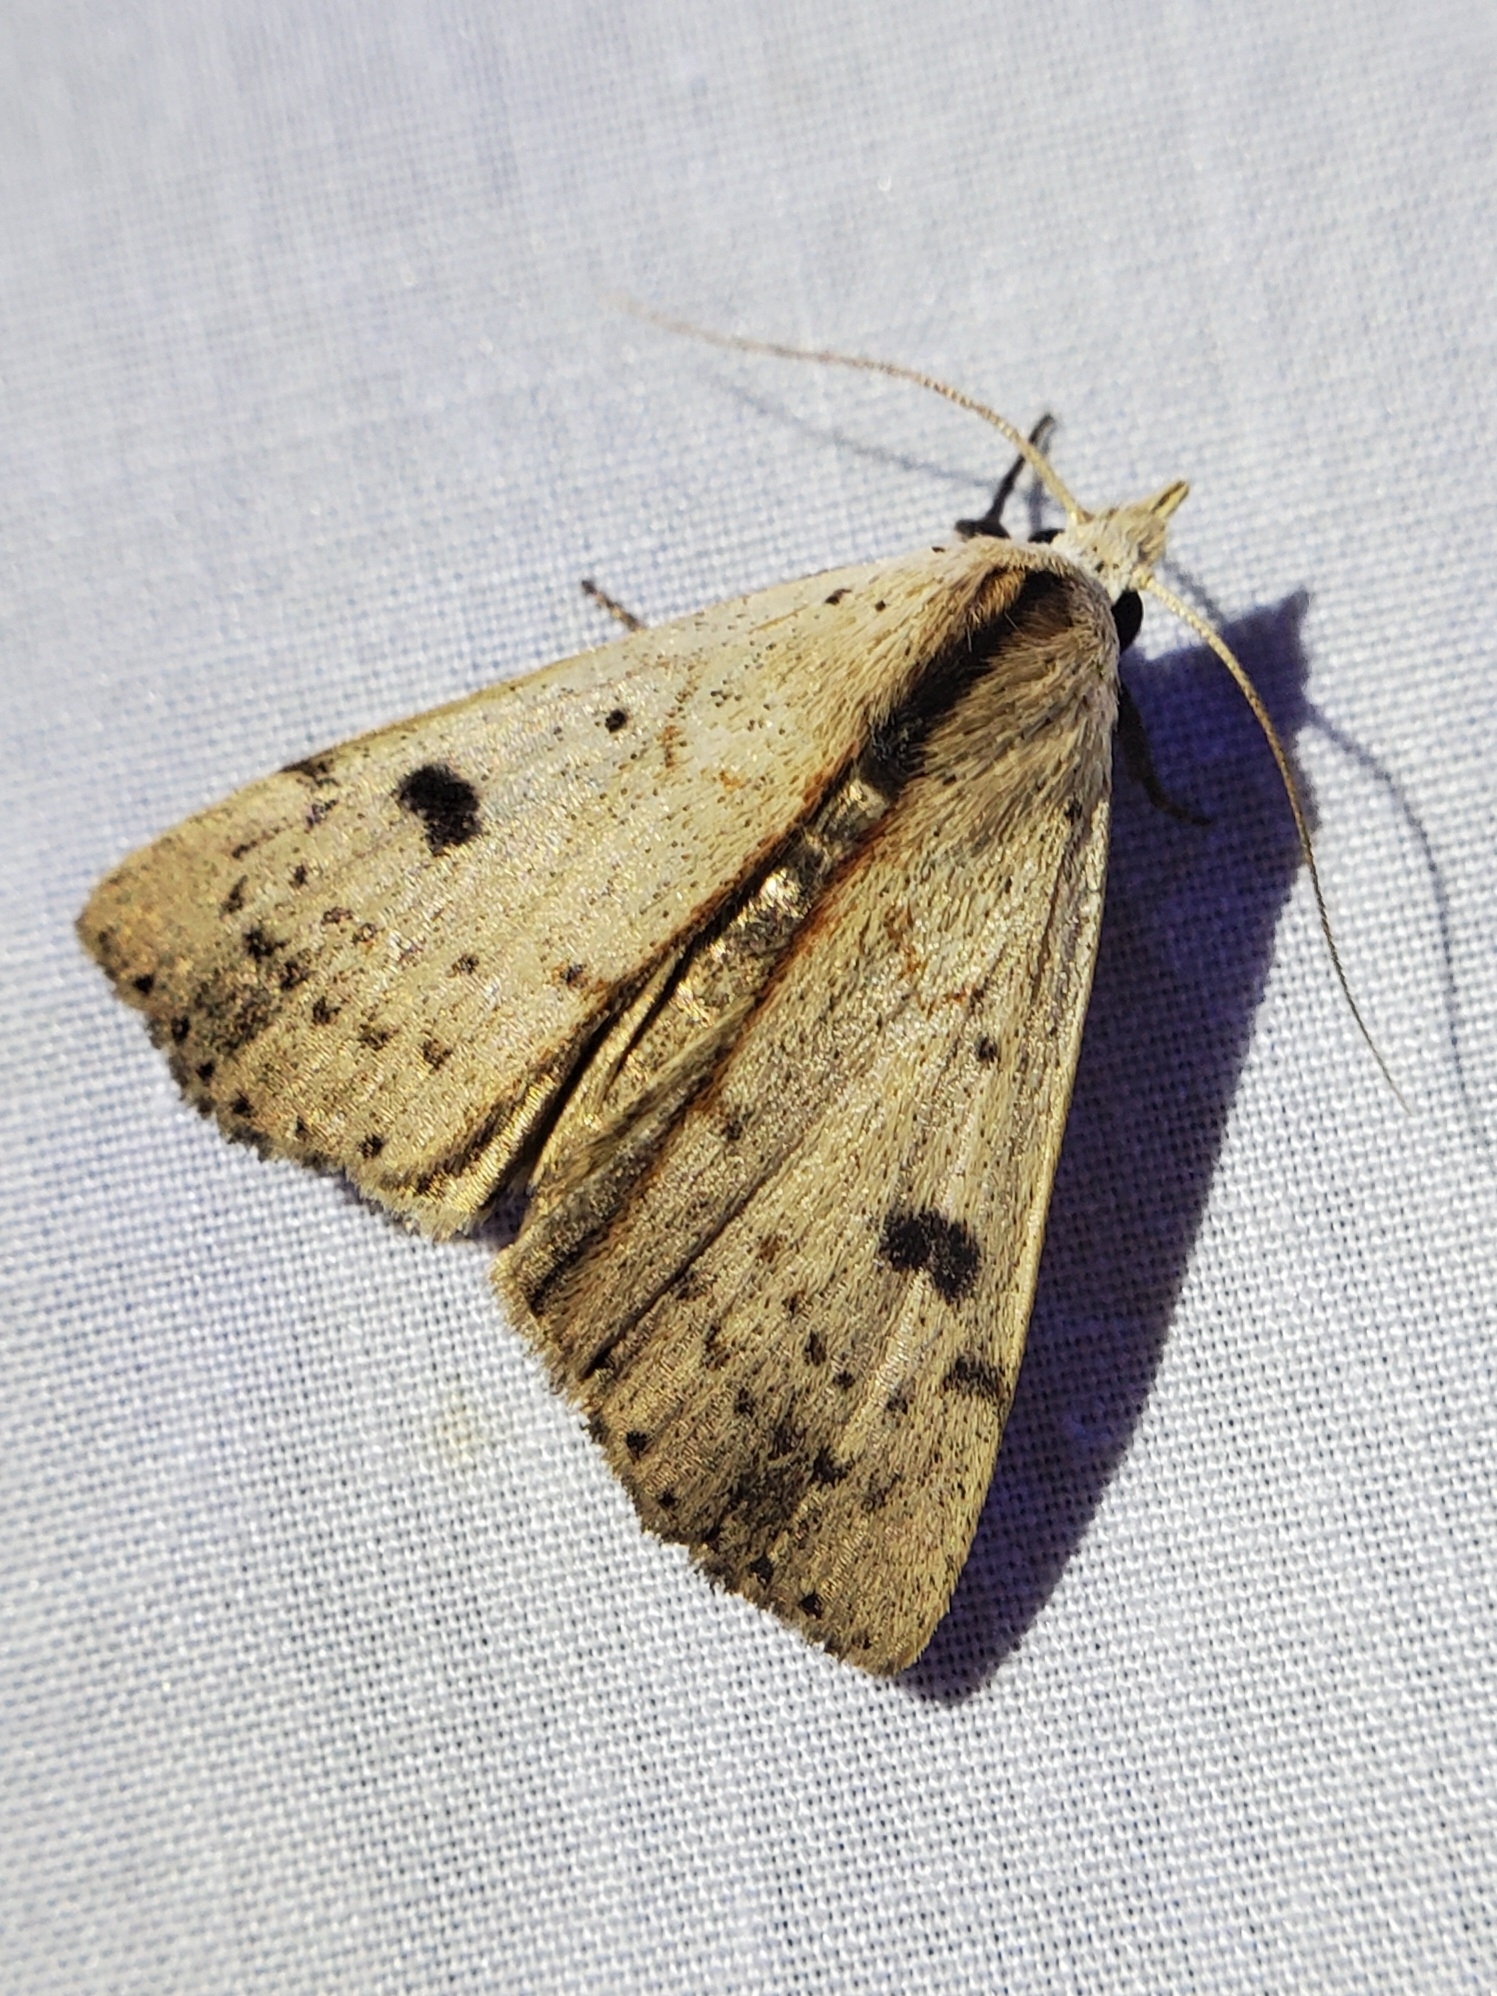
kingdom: Animalia
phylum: Arthropoda
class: Insecta
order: Lepidoptera
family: Erebidae
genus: Scolecocampa
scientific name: Scolecocampa liburna
